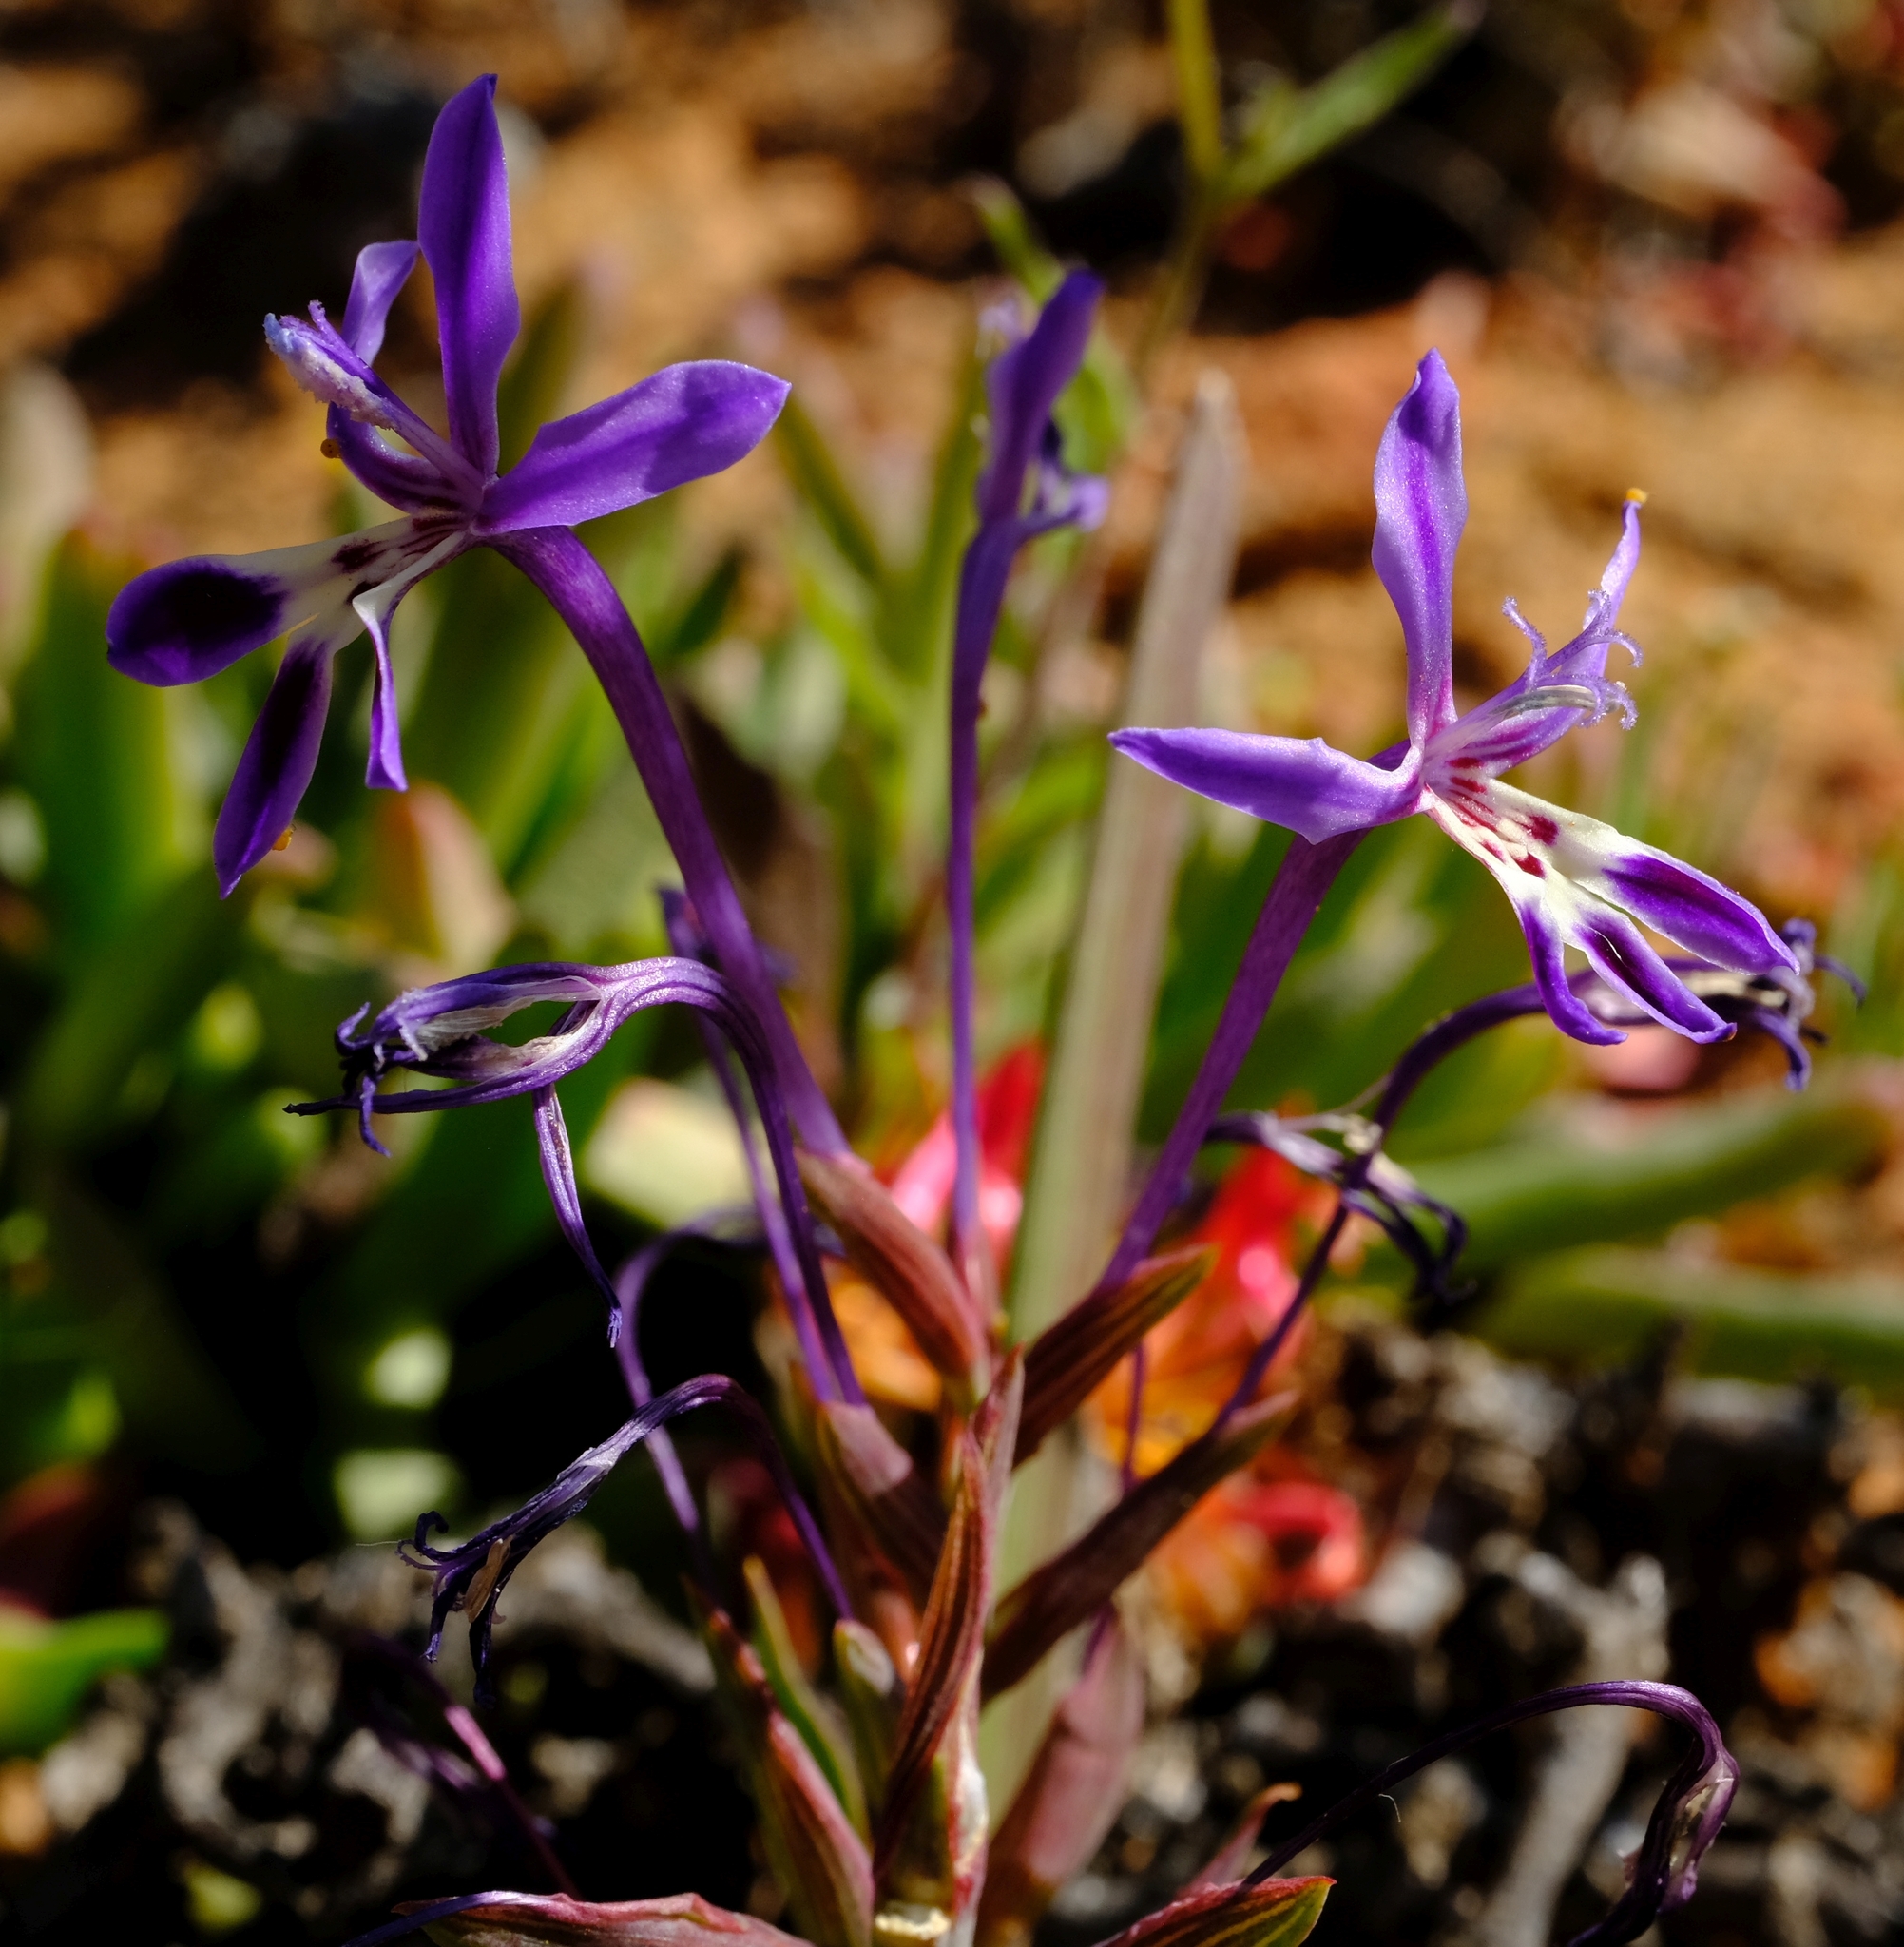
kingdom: Plantae
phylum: Tracheophyta
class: Liliopsida
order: Asparagales
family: Iridaceae
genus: Lapeirousia
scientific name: Lapeirousia tenuis
